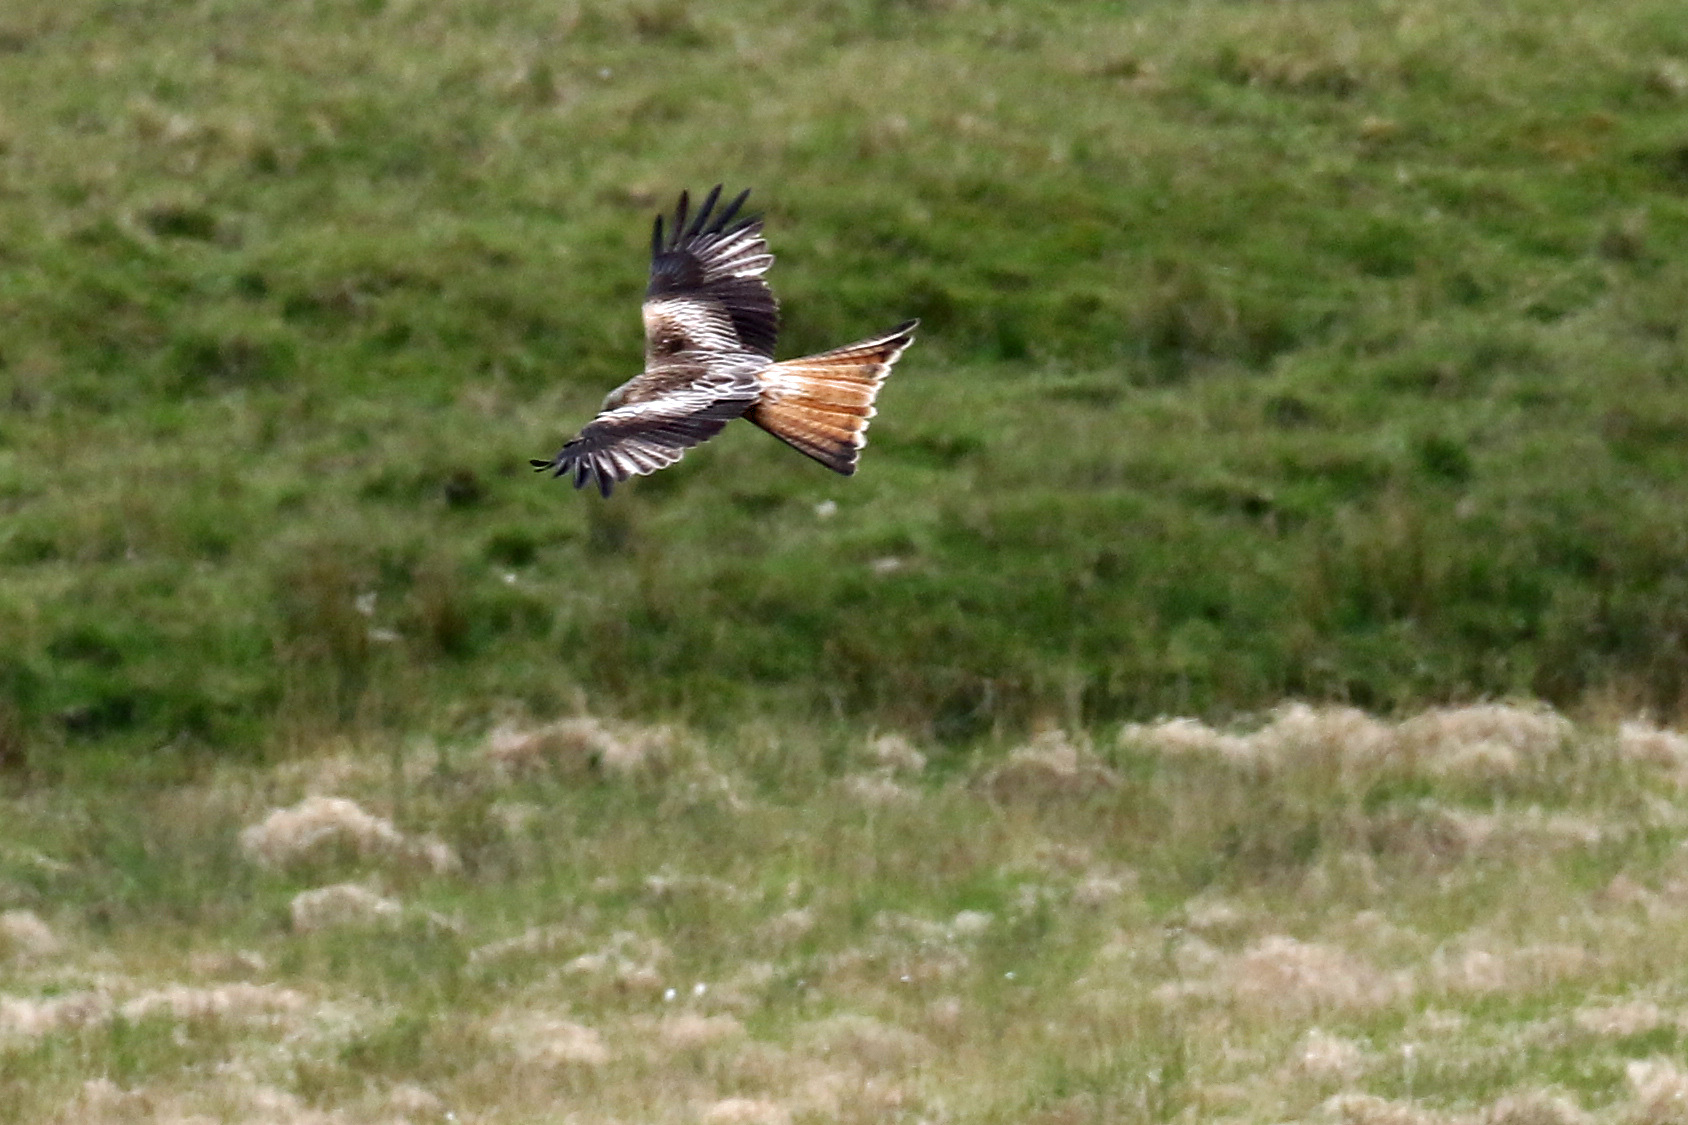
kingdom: Animalia
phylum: Chordata
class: Aves
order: Accipitriformes
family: Accipitridae
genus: Milvus
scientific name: Milvus milvus
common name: Red kite
